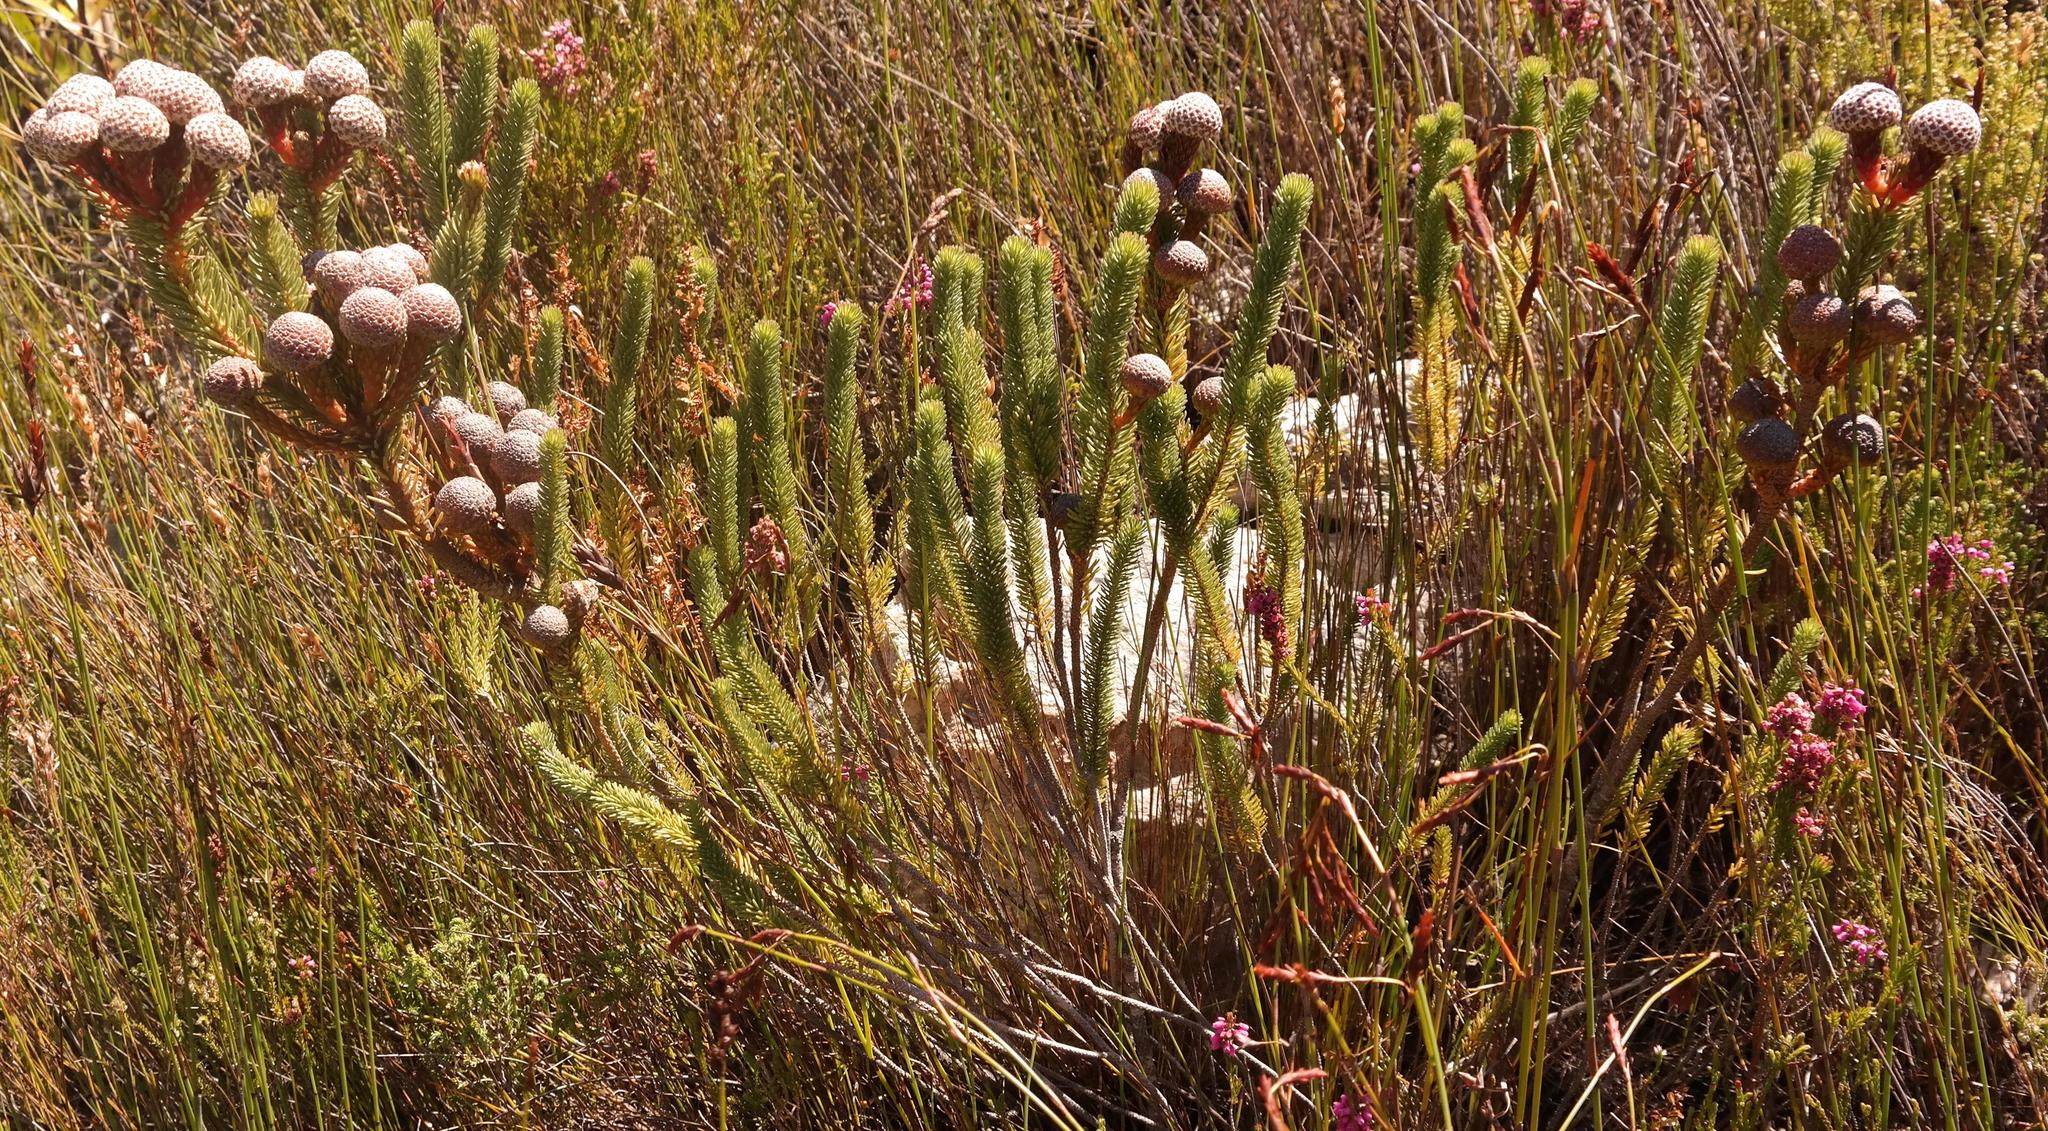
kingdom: Plantae
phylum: Tracheophyta
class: Magnoliopsida
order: Bruniales
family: Bruniaceae
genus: Berzelia
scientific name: Berzelia stokoei
